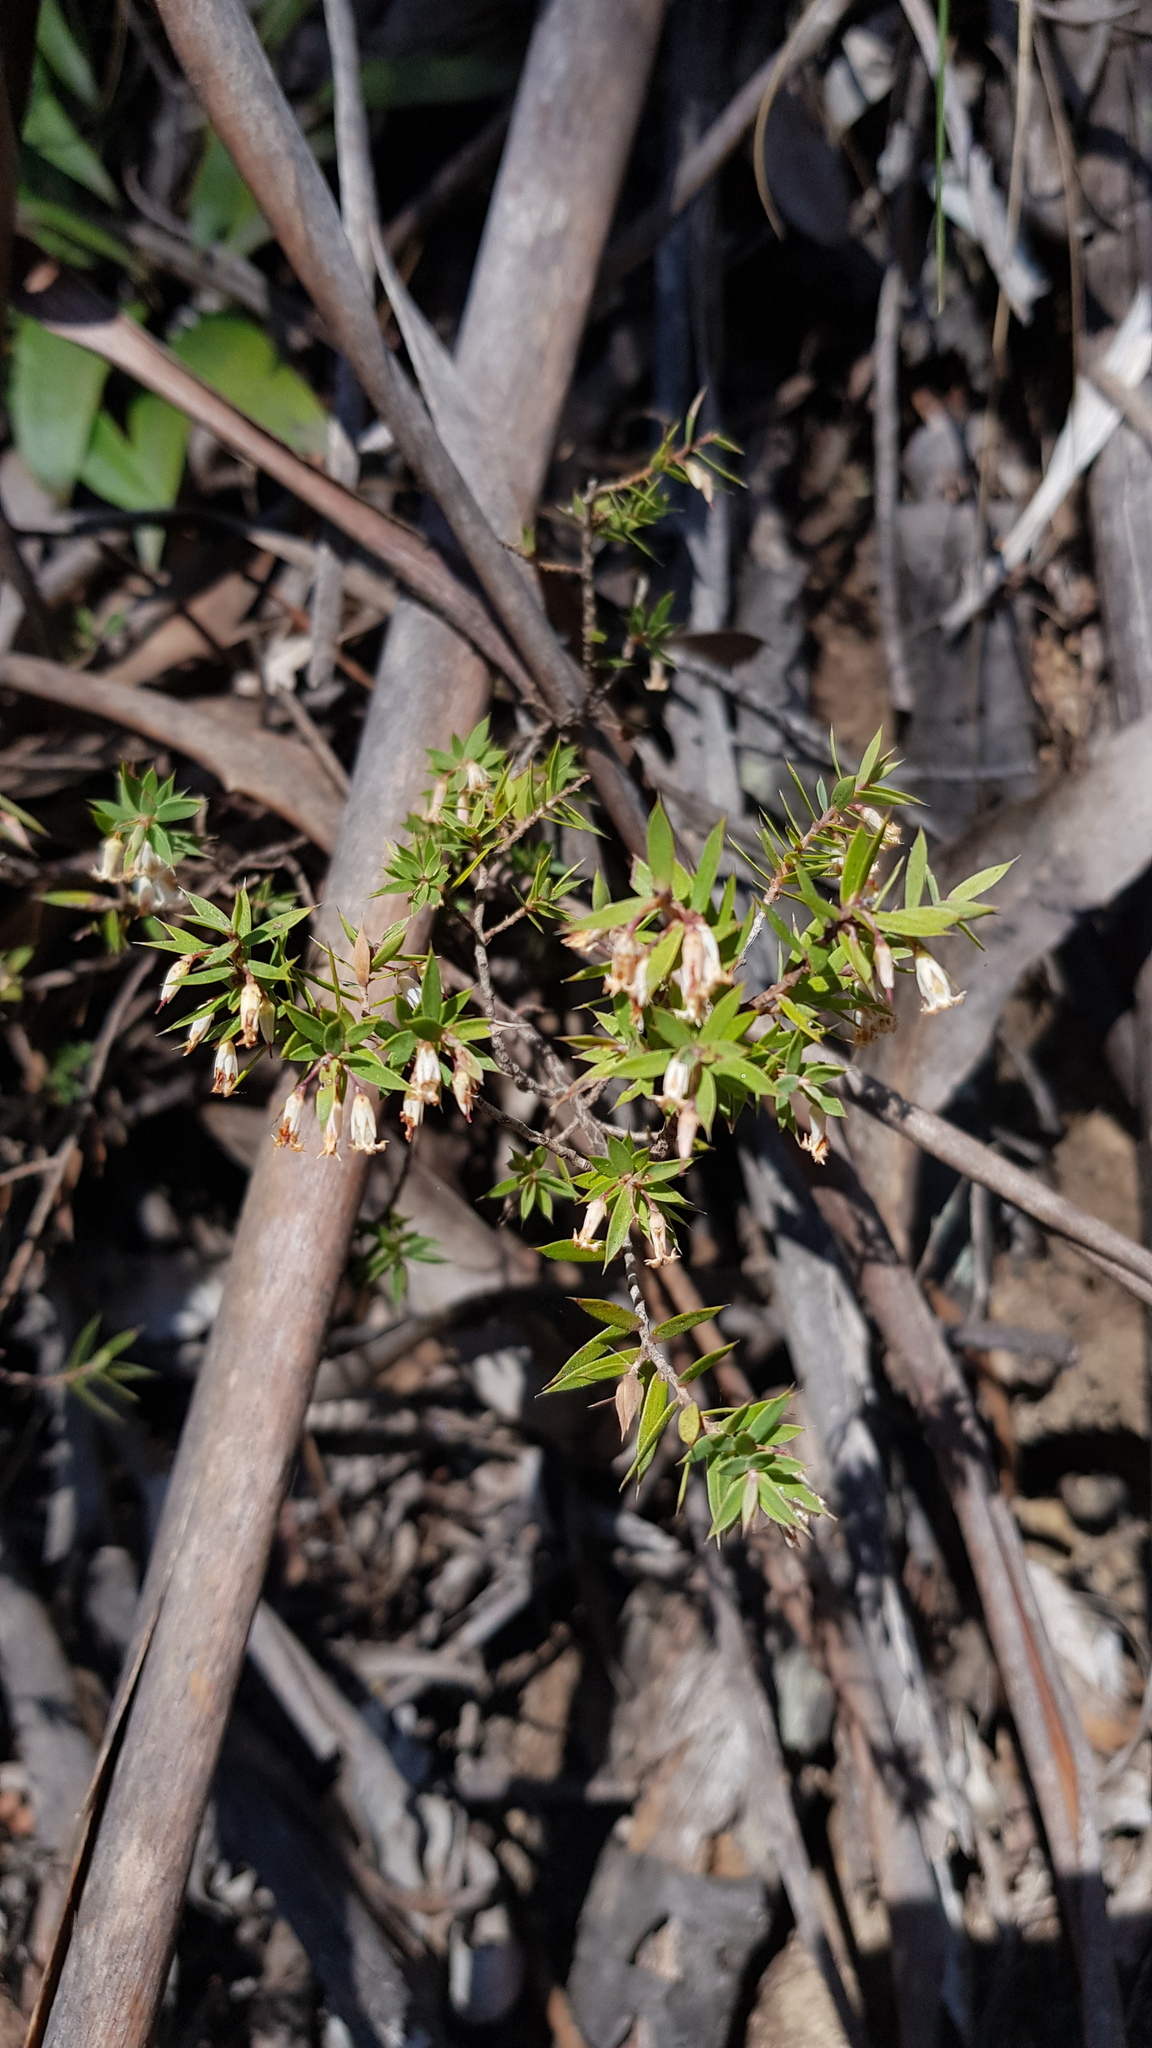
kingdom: Plantae
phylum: Tracheophyta
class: Magnoliopsida
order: Ericales
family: Ericaceae
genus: Styphelia
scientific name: Styphelia setigera
